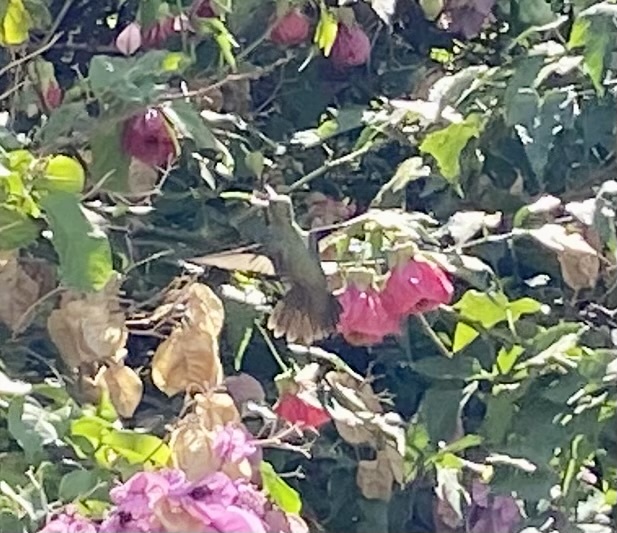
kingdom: Animalia
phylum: Chordata
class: Aves
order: Apodiformes
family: Trochilidae
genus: Hylocharis
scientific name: Hylocharis chrysura
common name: Gilded sapphire
